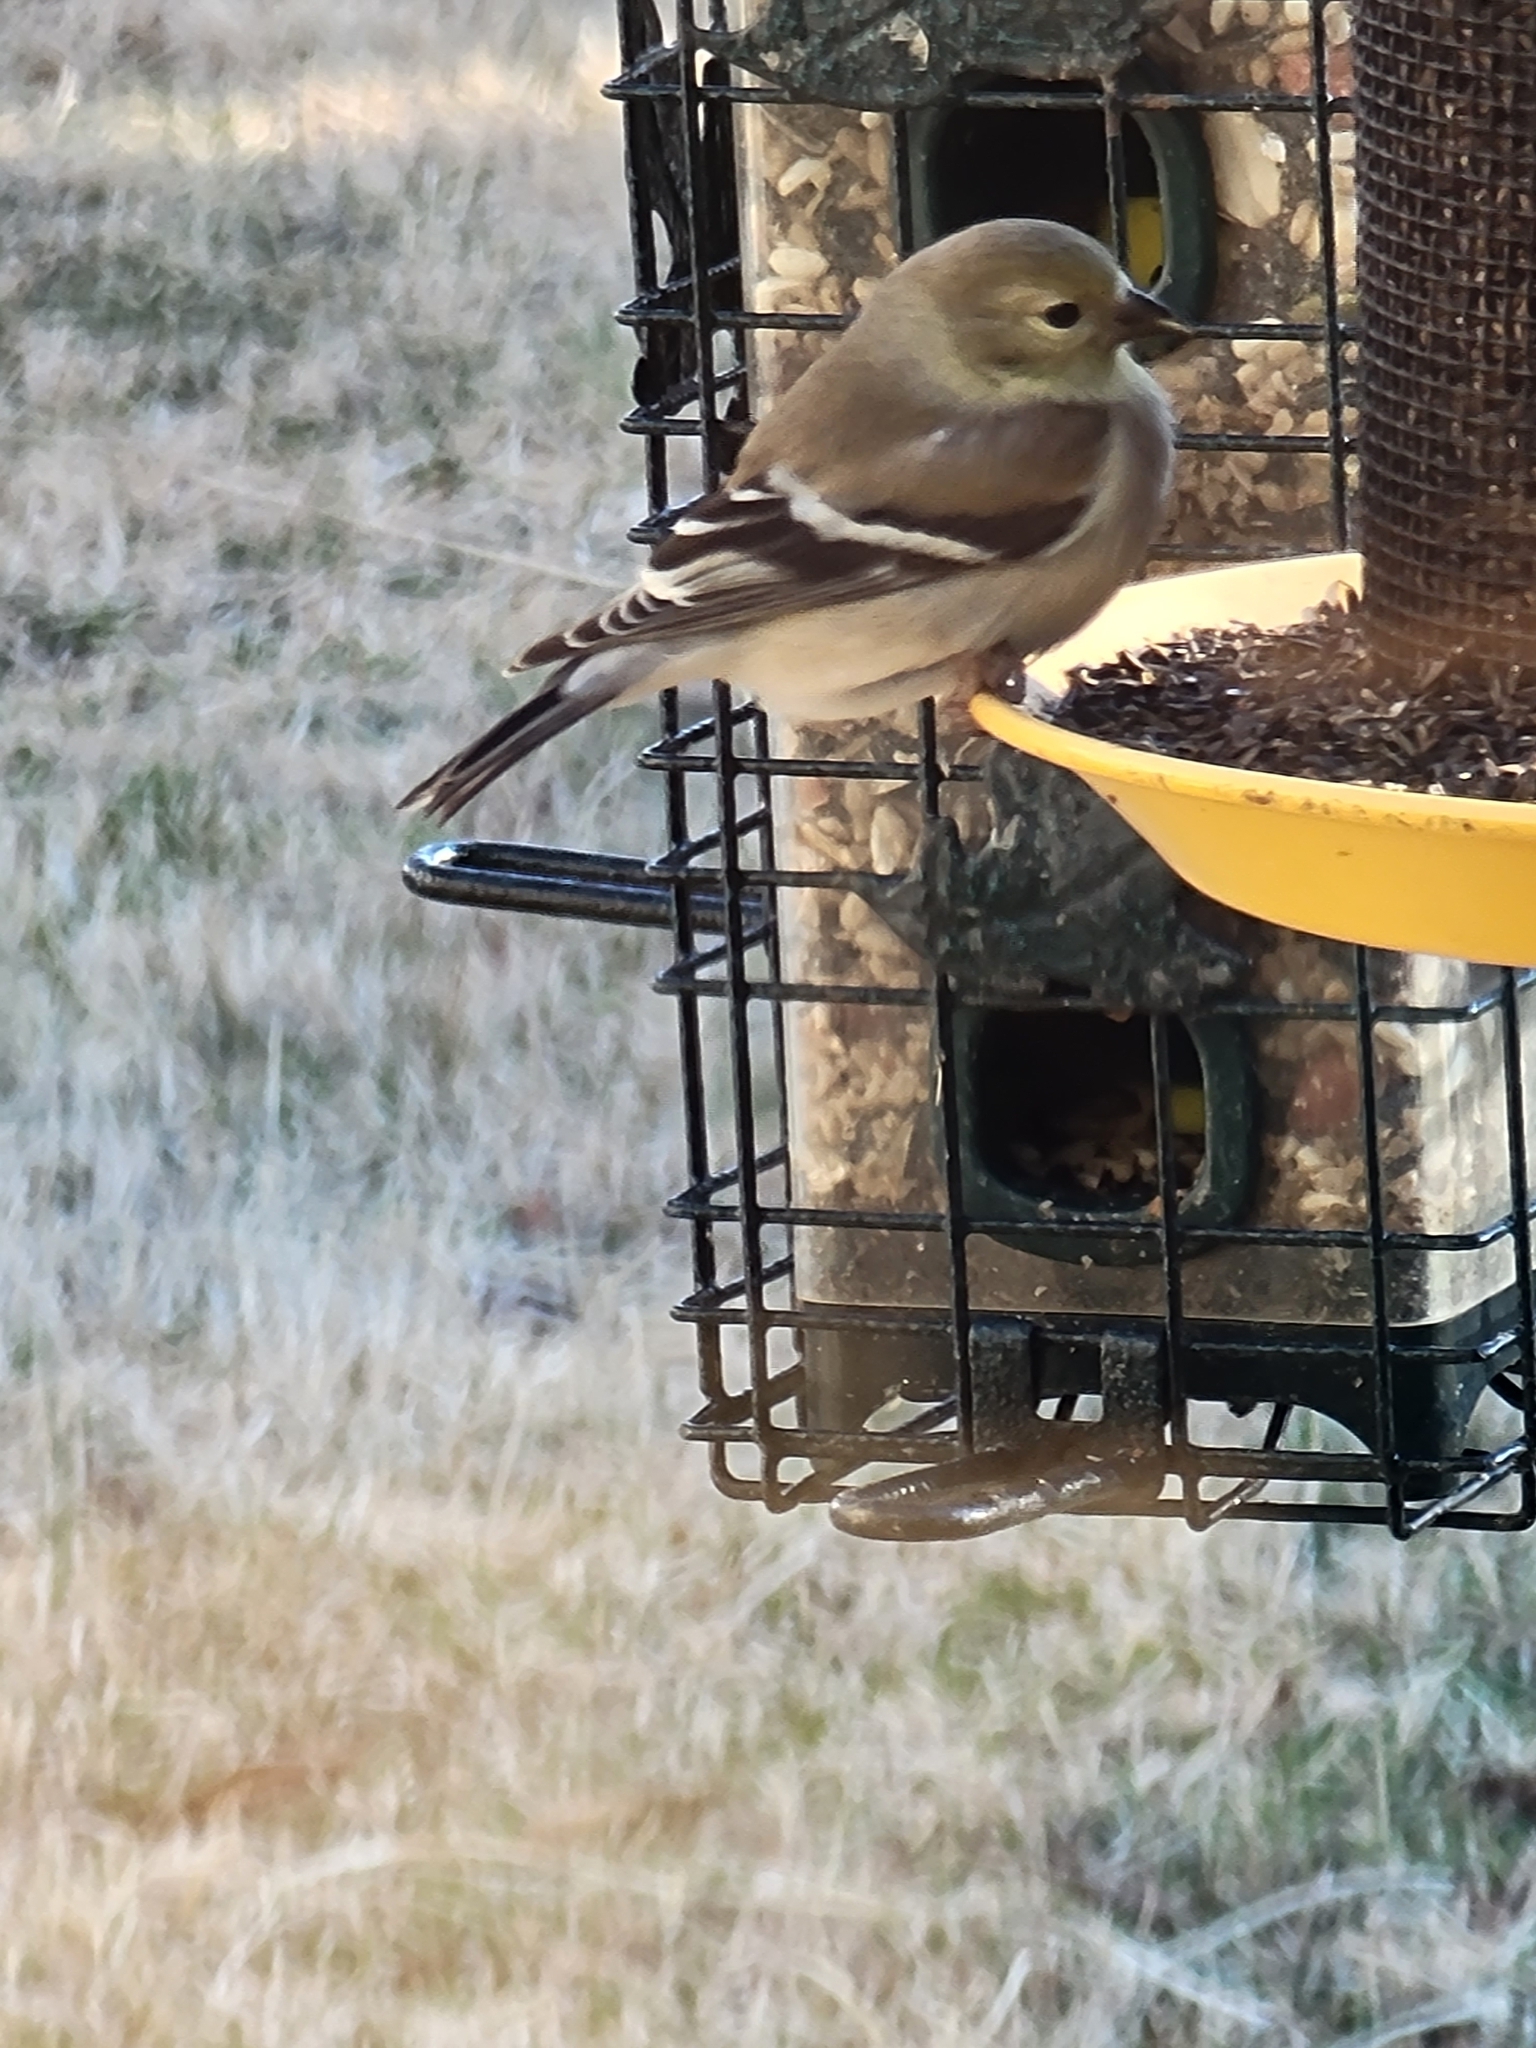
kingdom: Animalia
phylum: Chordata
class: Aves
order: Passeriformes
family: Fringillidae
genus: Spinus
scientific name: Spinus tristis
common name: American goldfinch
